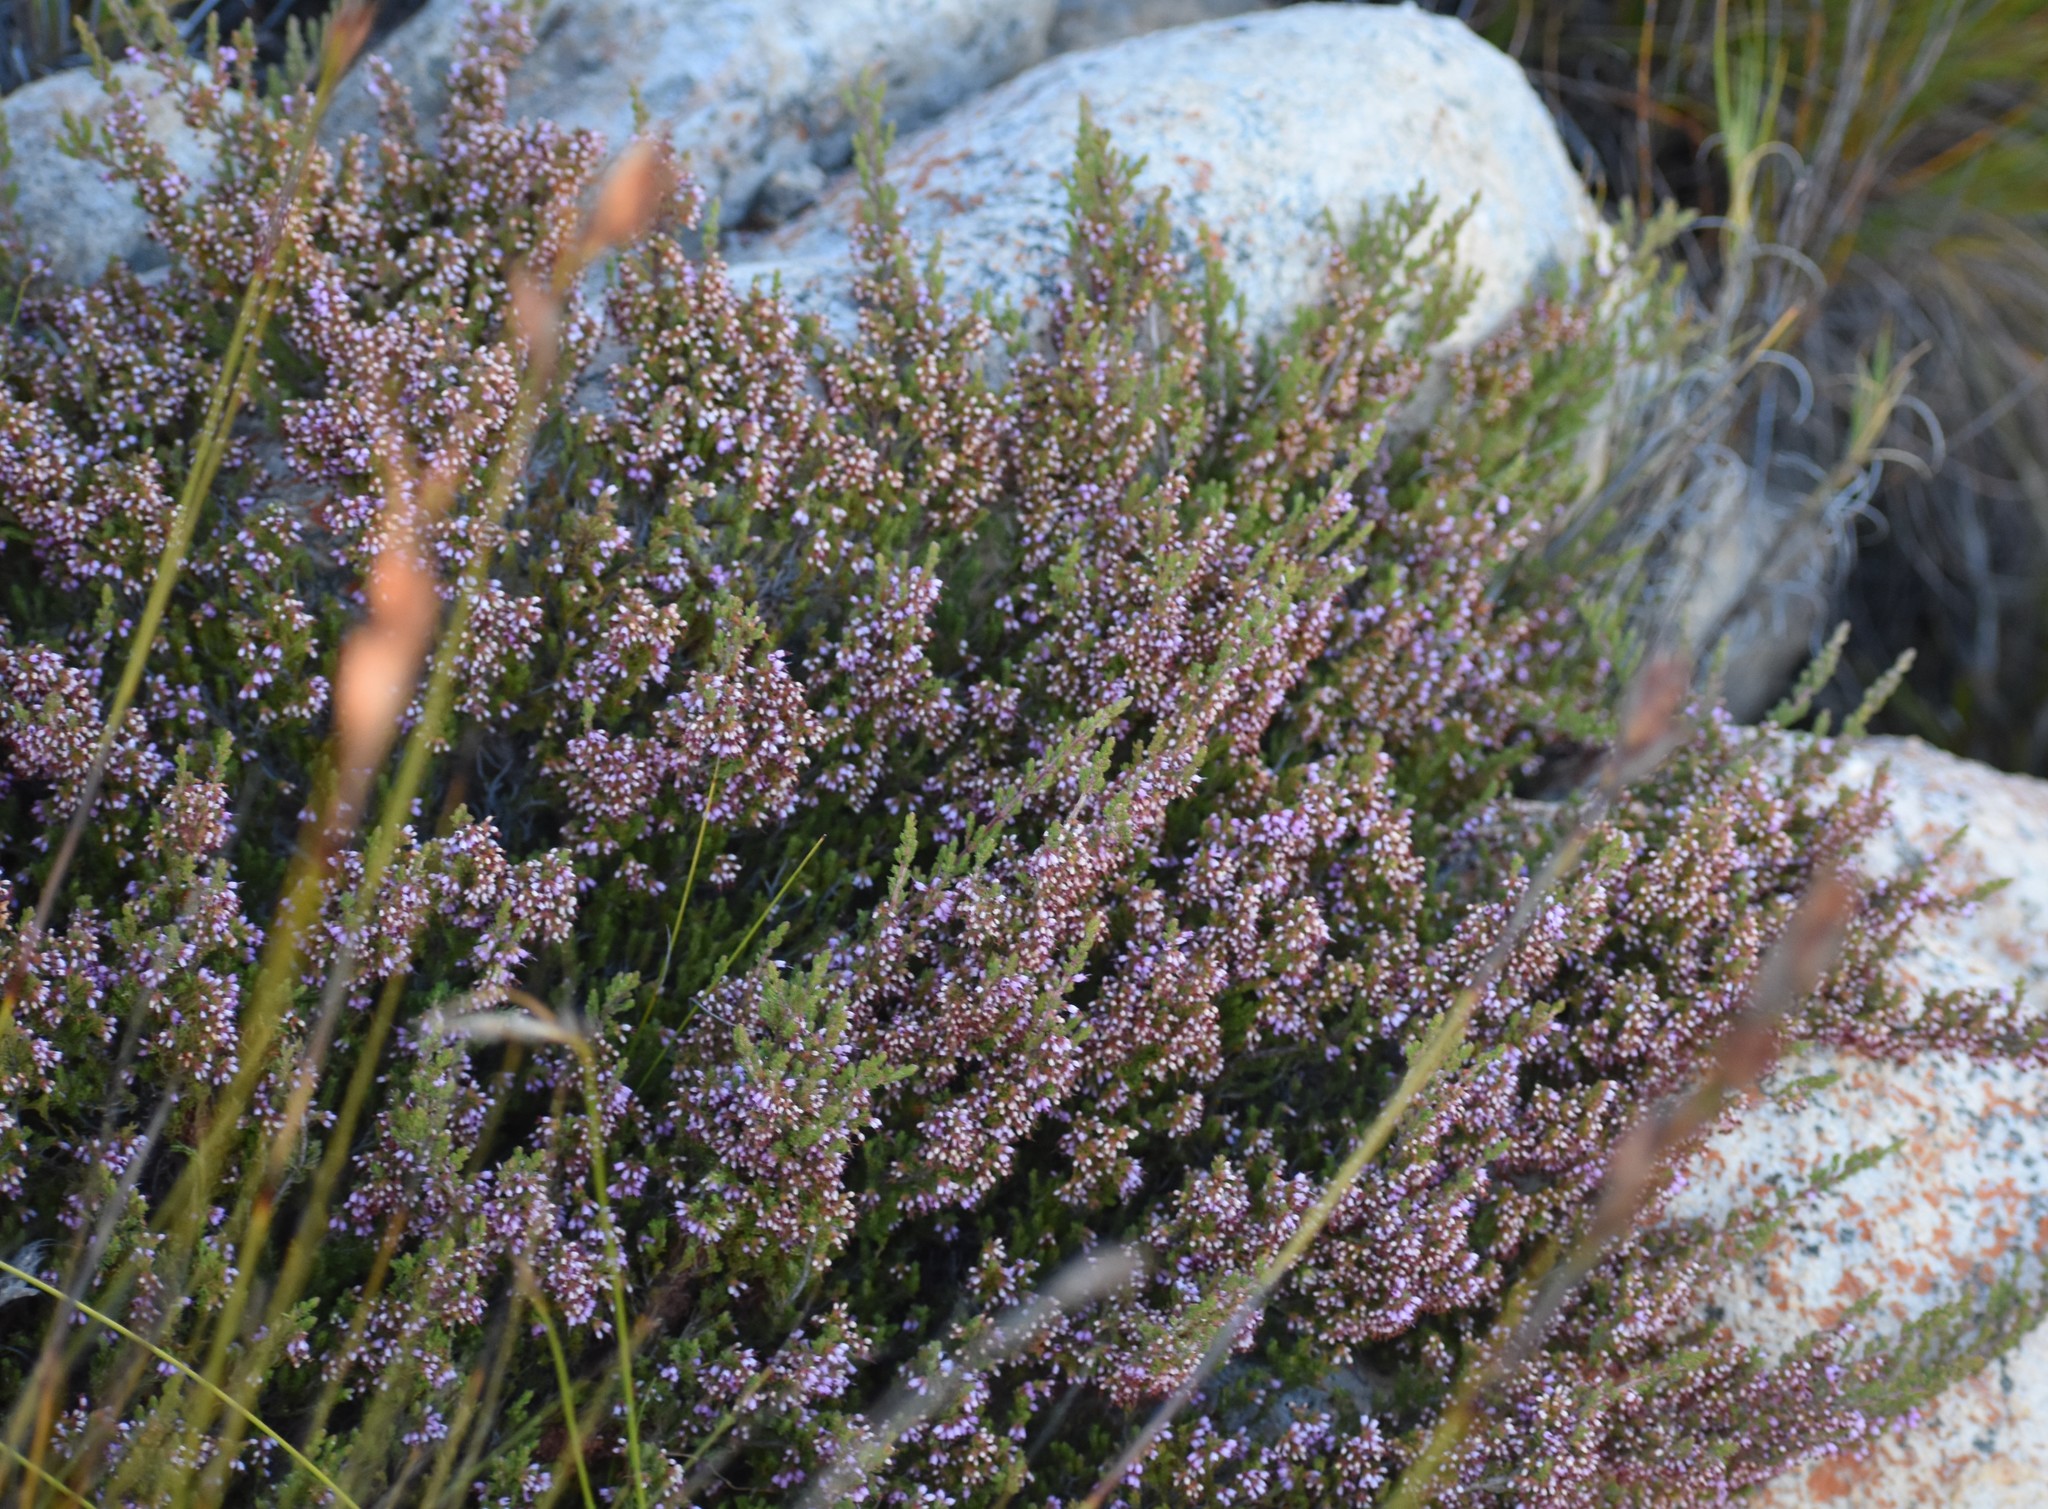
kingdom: Plantae
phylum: Tracheophyta
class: Magnoliopsida
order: Ericales
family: Ericaceae
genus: Erica
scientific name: Erica petraea
